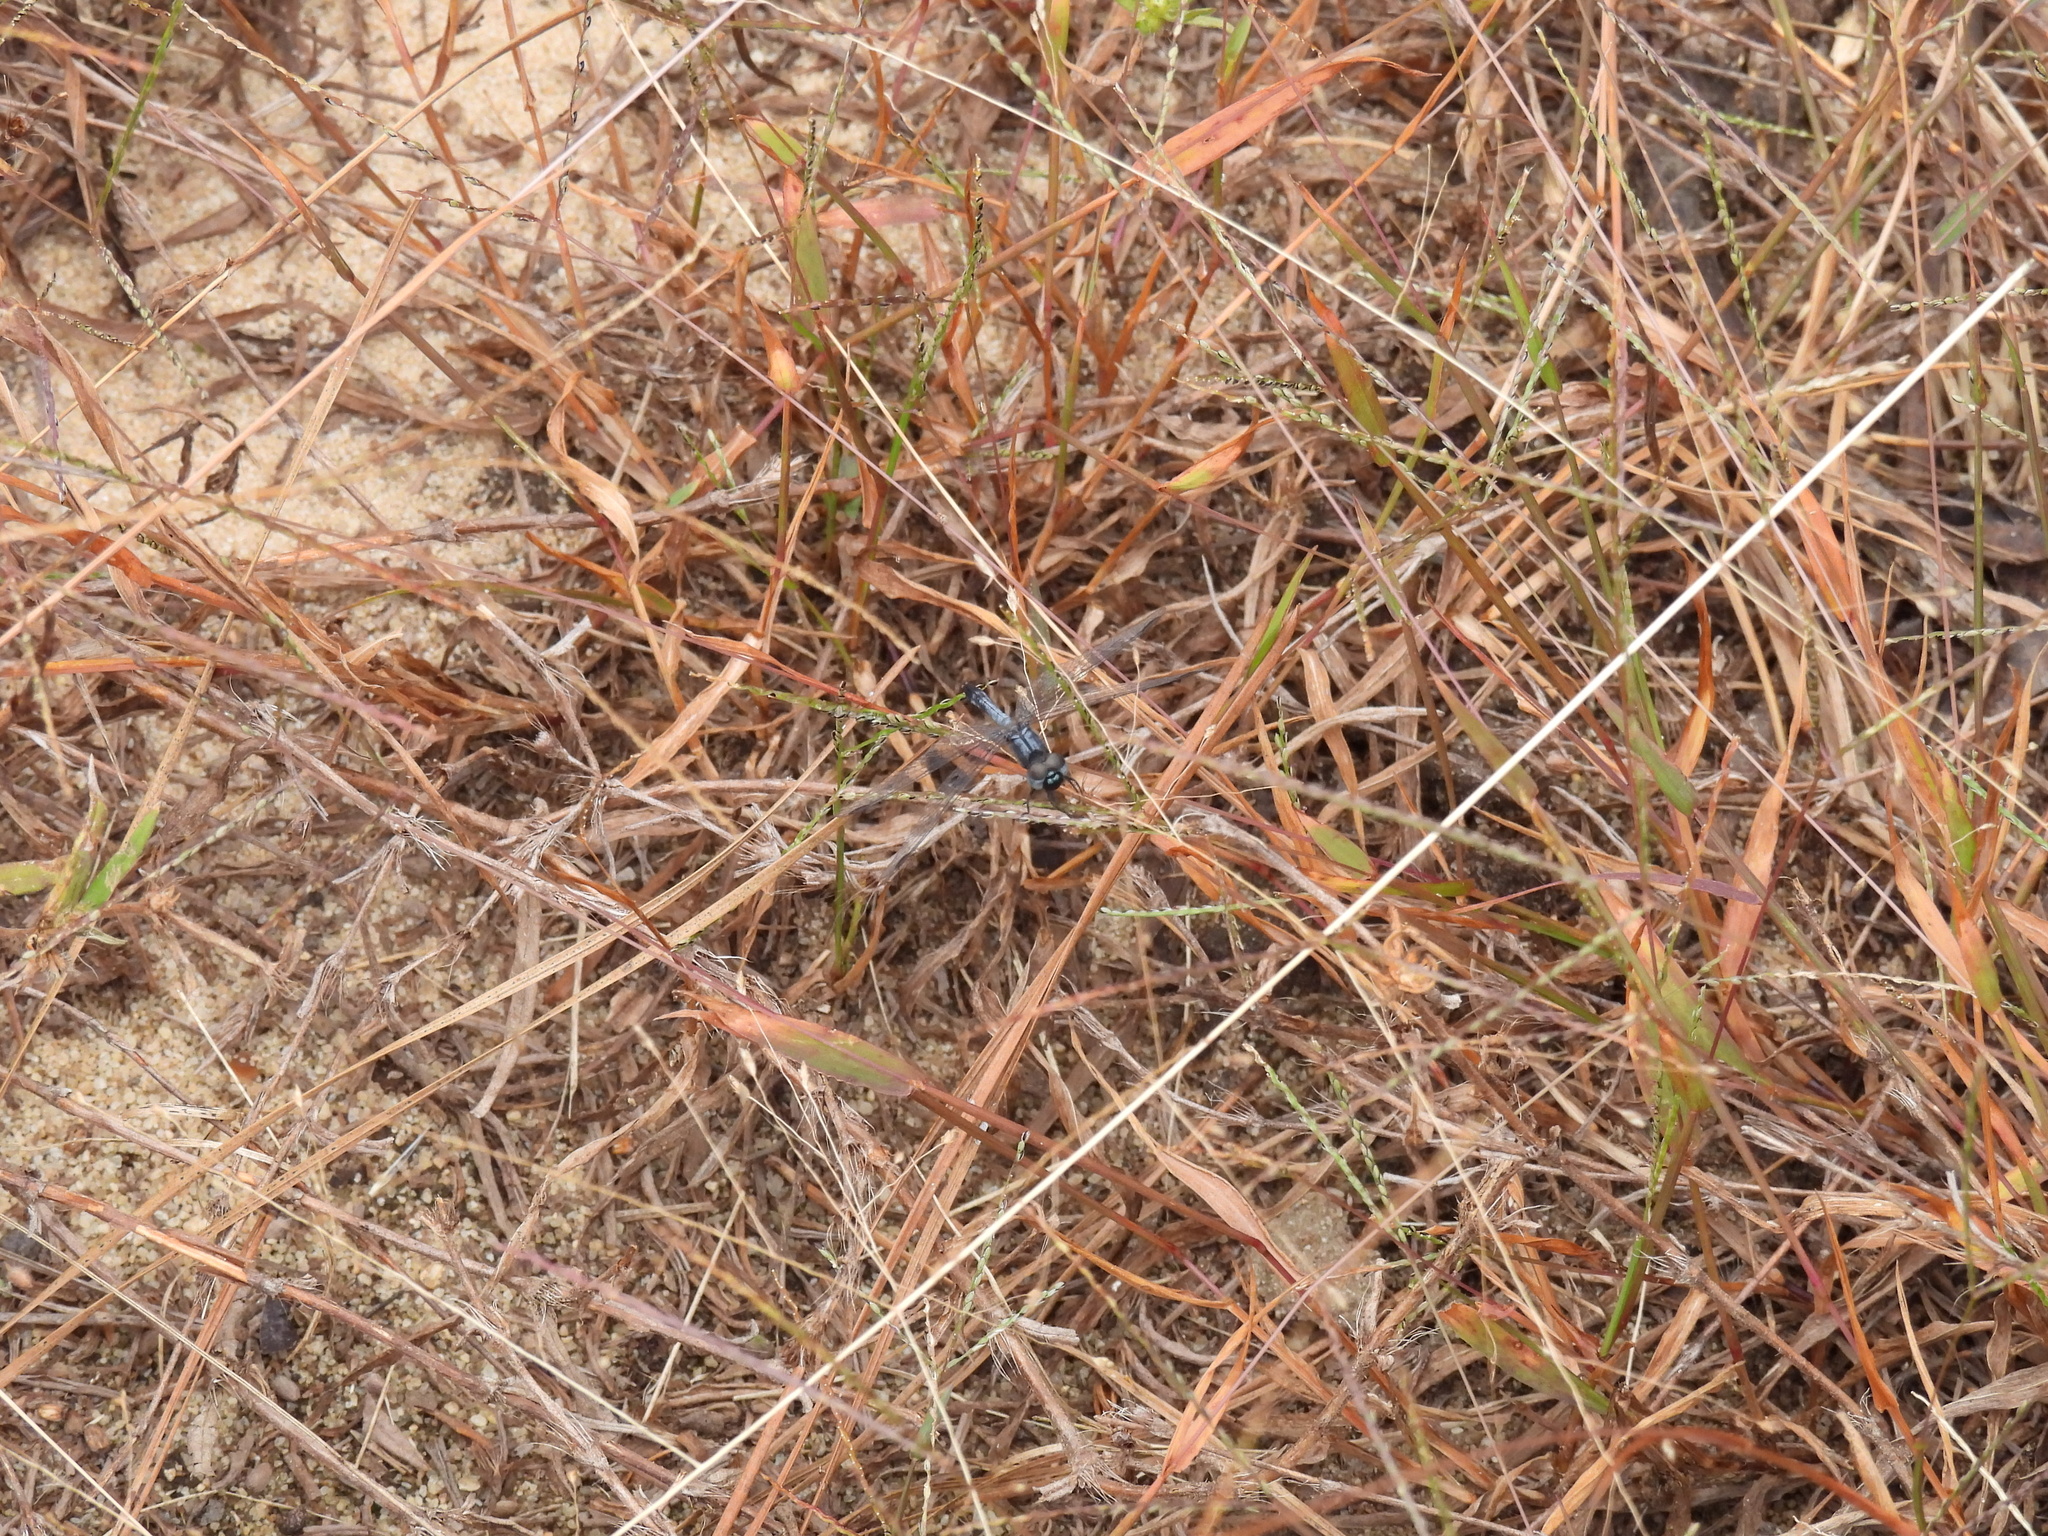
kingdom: Animalia
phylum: Arthropoda
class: Insecta
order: Odonata
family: Libellulidae
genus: Erythrodiplax
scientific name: Erythrodiplax minuscula
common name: Little blue dragonlet
